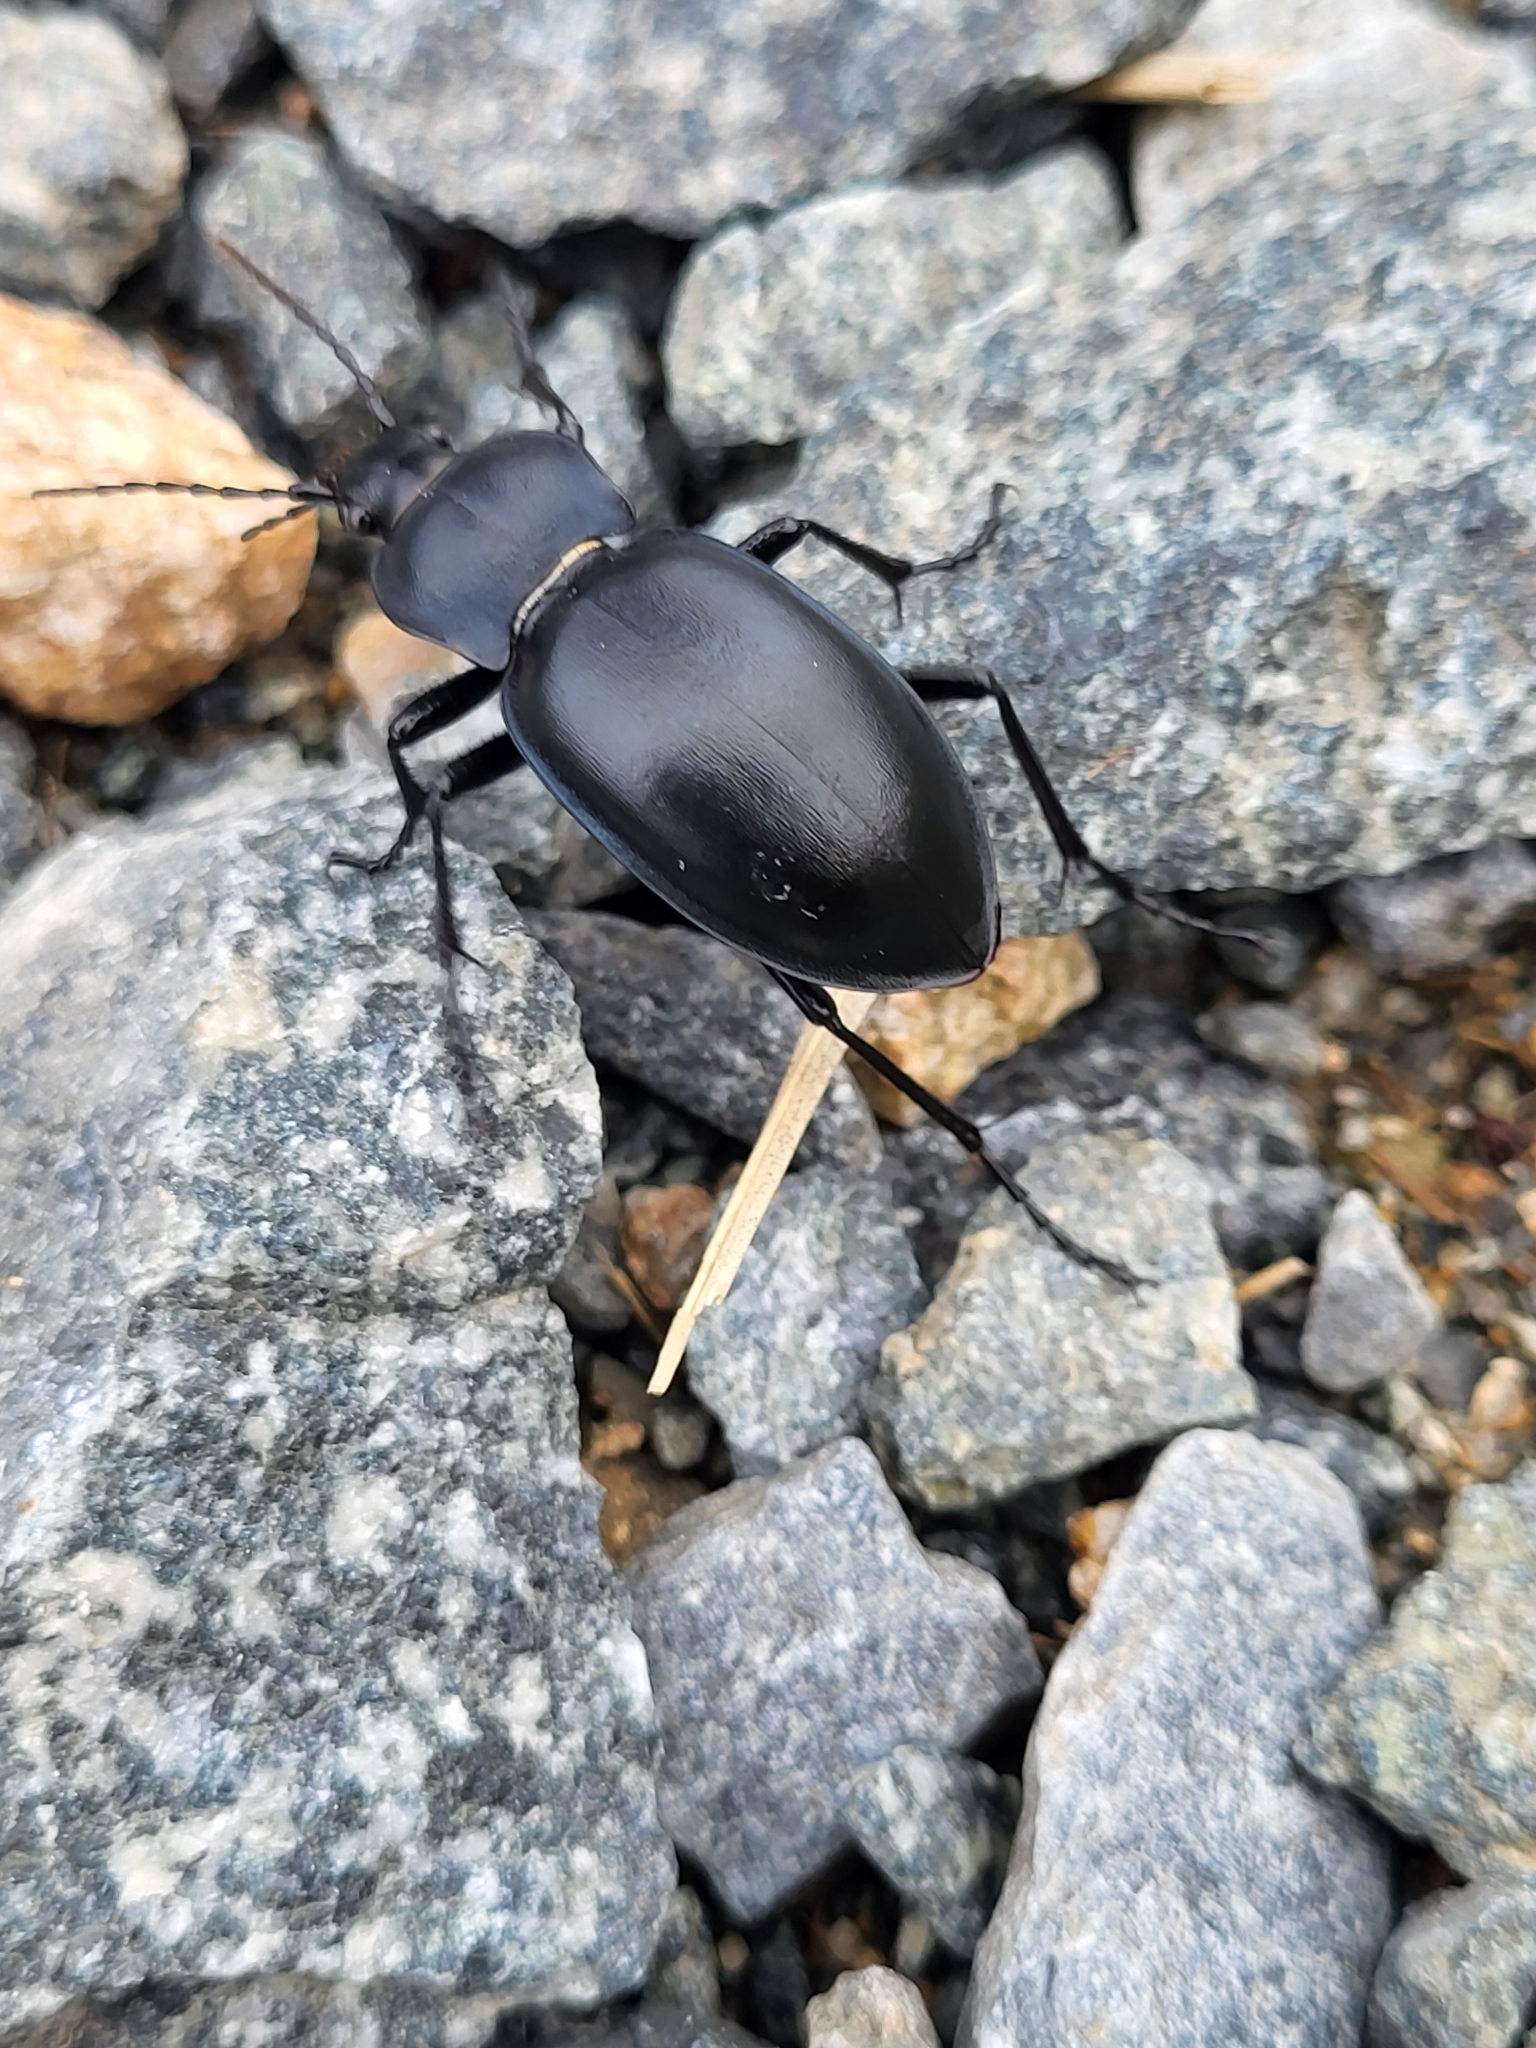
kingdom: Animalia
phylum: Arthropoda
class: Insecta
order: Coleoptera
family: Carabidae
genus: Carabus
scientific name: Carabus glabratus
